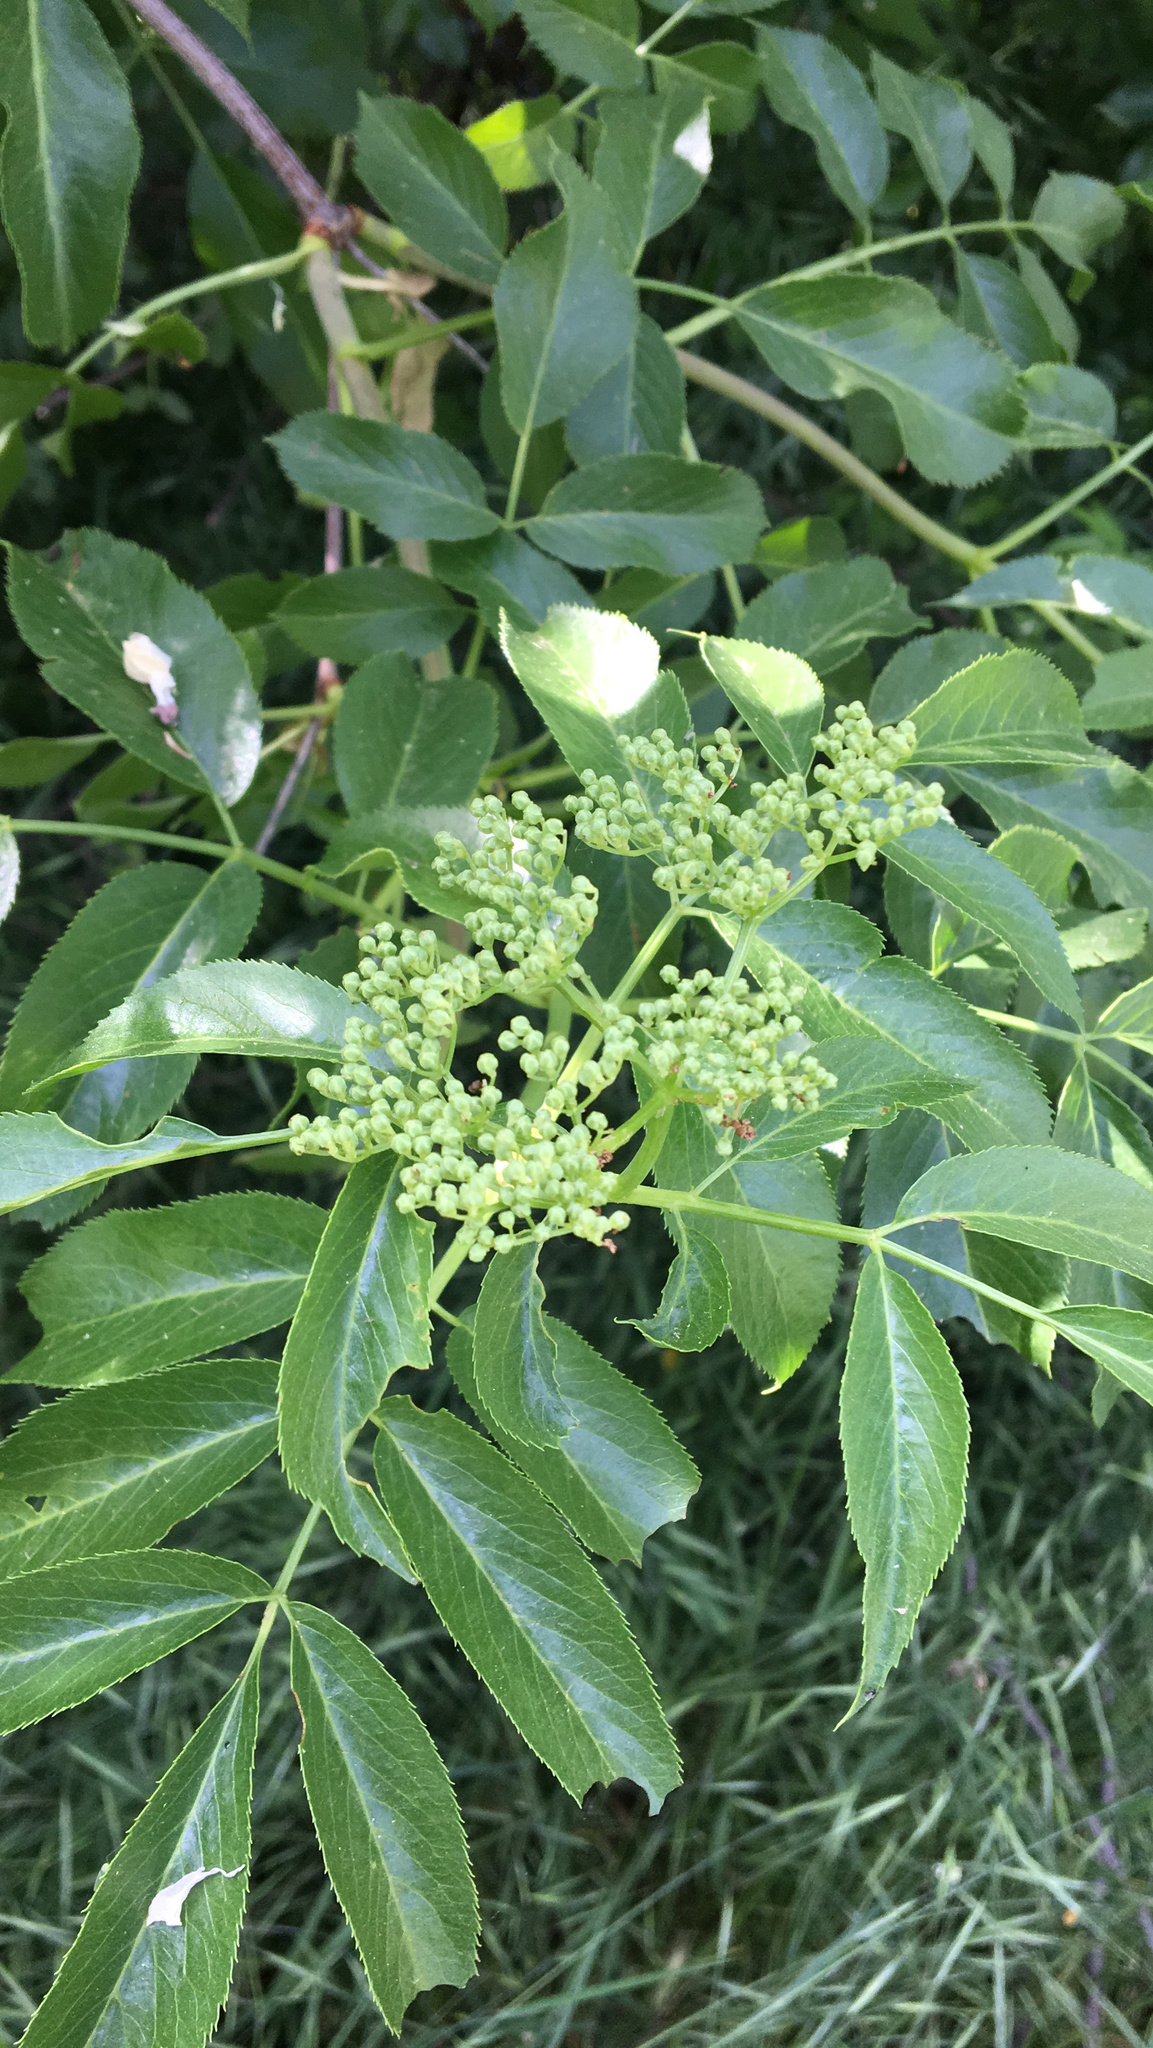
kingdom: Plantae
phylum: Tracheophyta
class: Magnoliopsida
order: Dipsacales
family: Viburnaceae
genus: Sambucus
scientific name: Sambucus cerulea
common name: Blue elder
